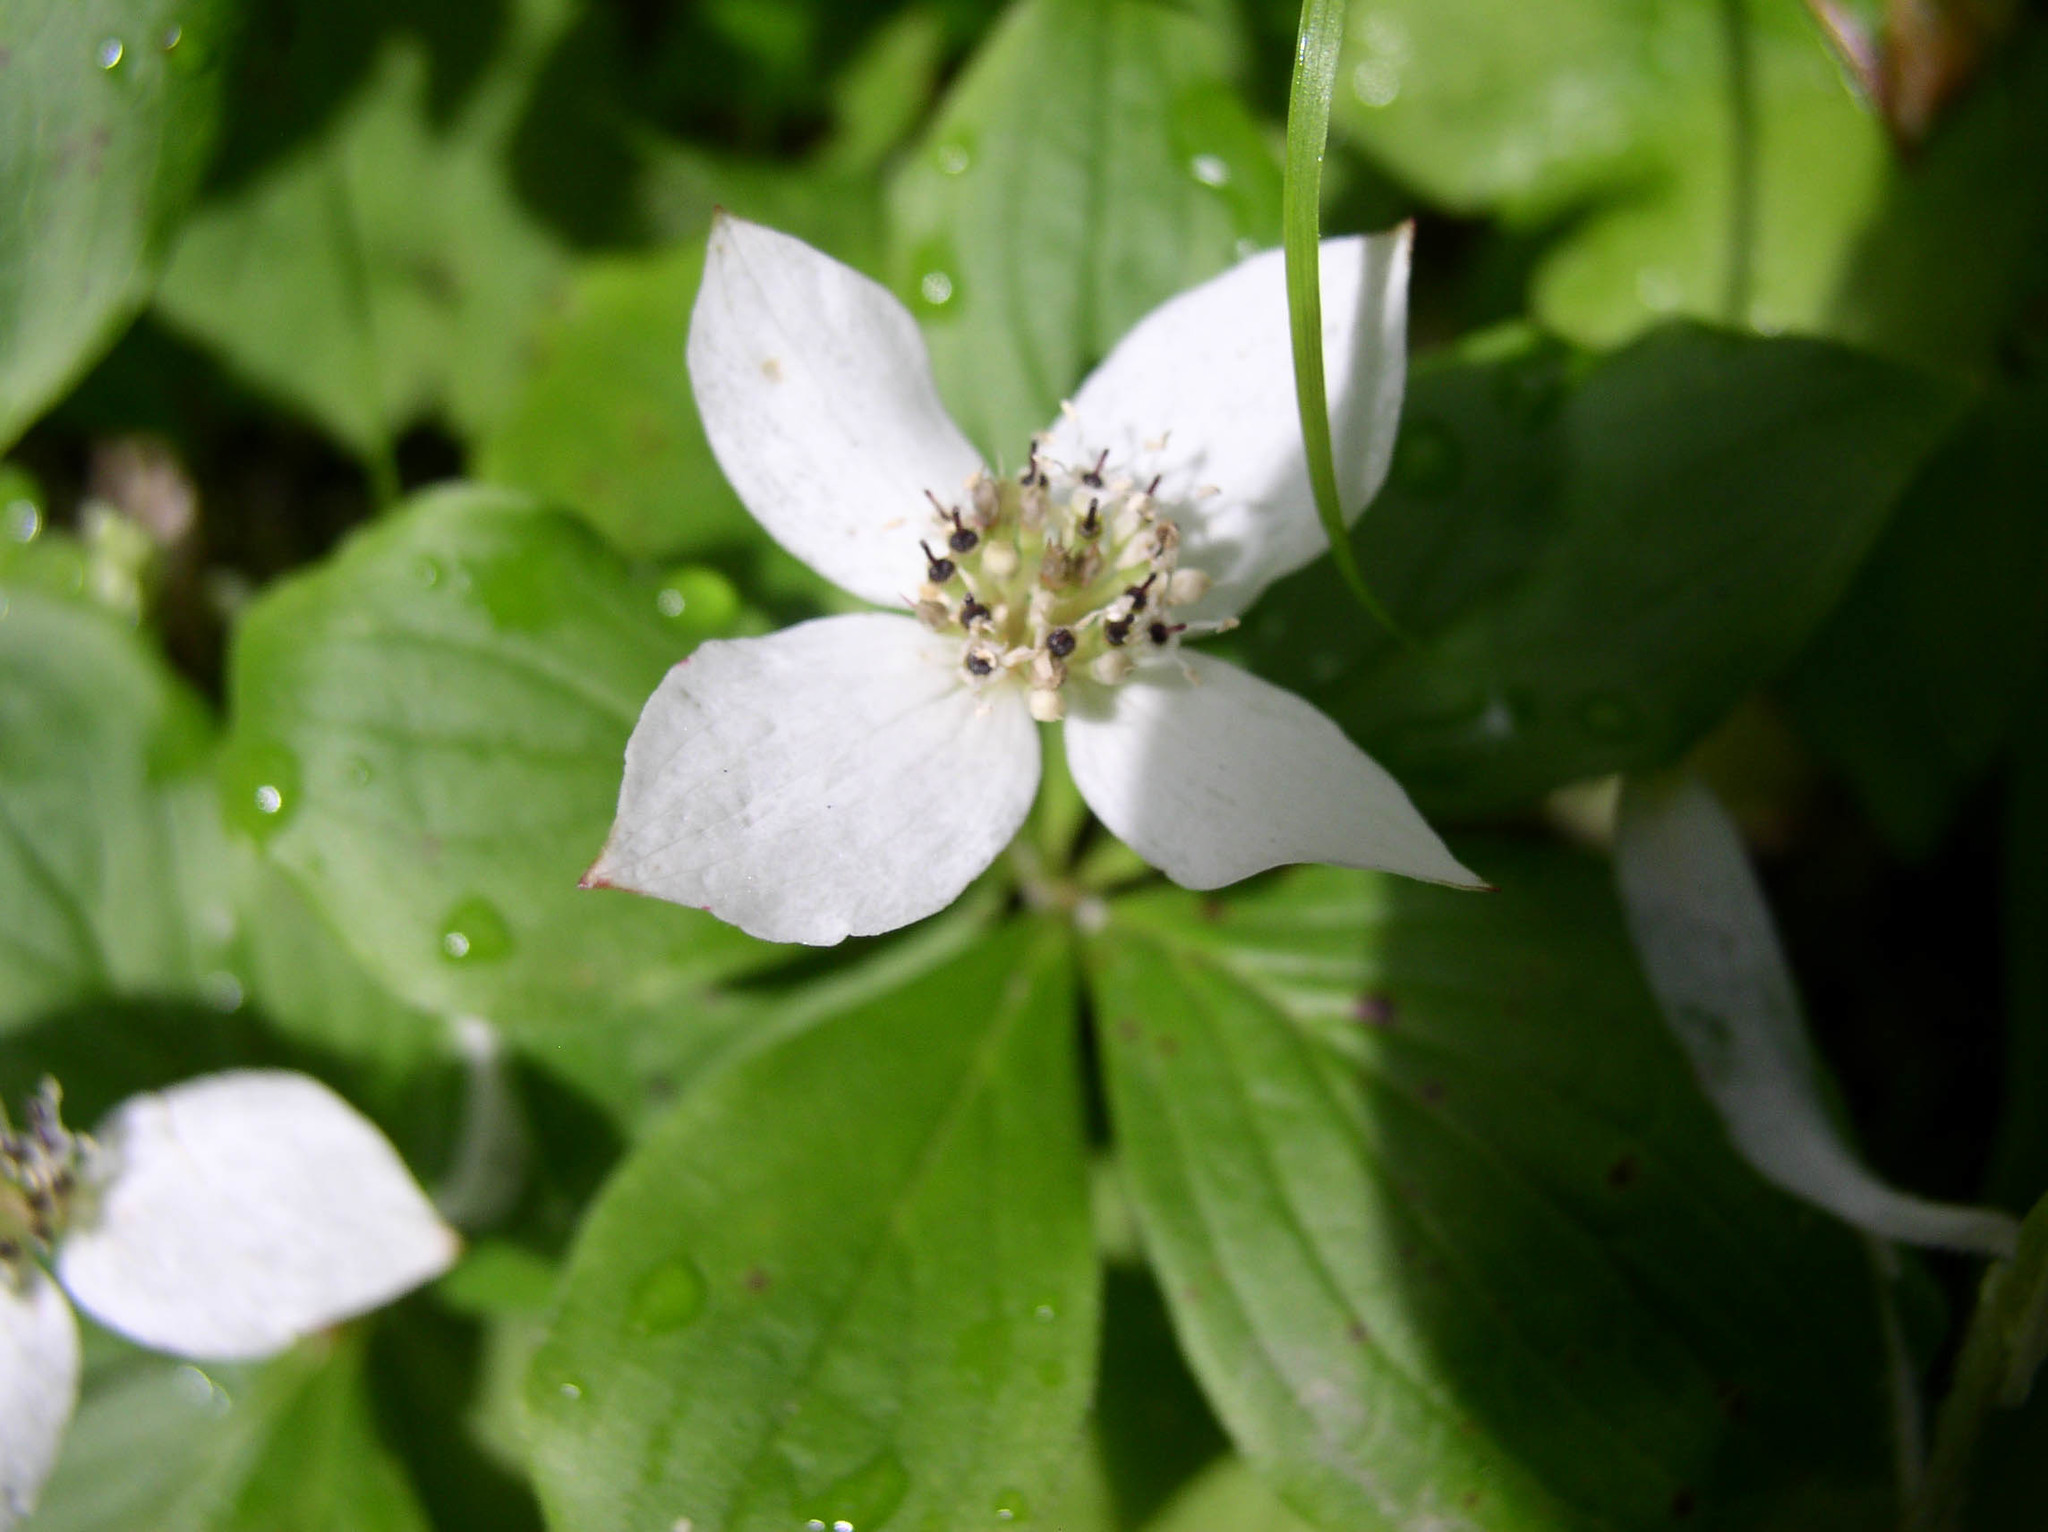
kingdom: Plantae
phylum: Tracheophyta
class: Magnoliopsida
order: Cornales
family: Cornaceae
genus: Cornus
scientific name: Cornus canadensis
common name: Creeping dogwood
